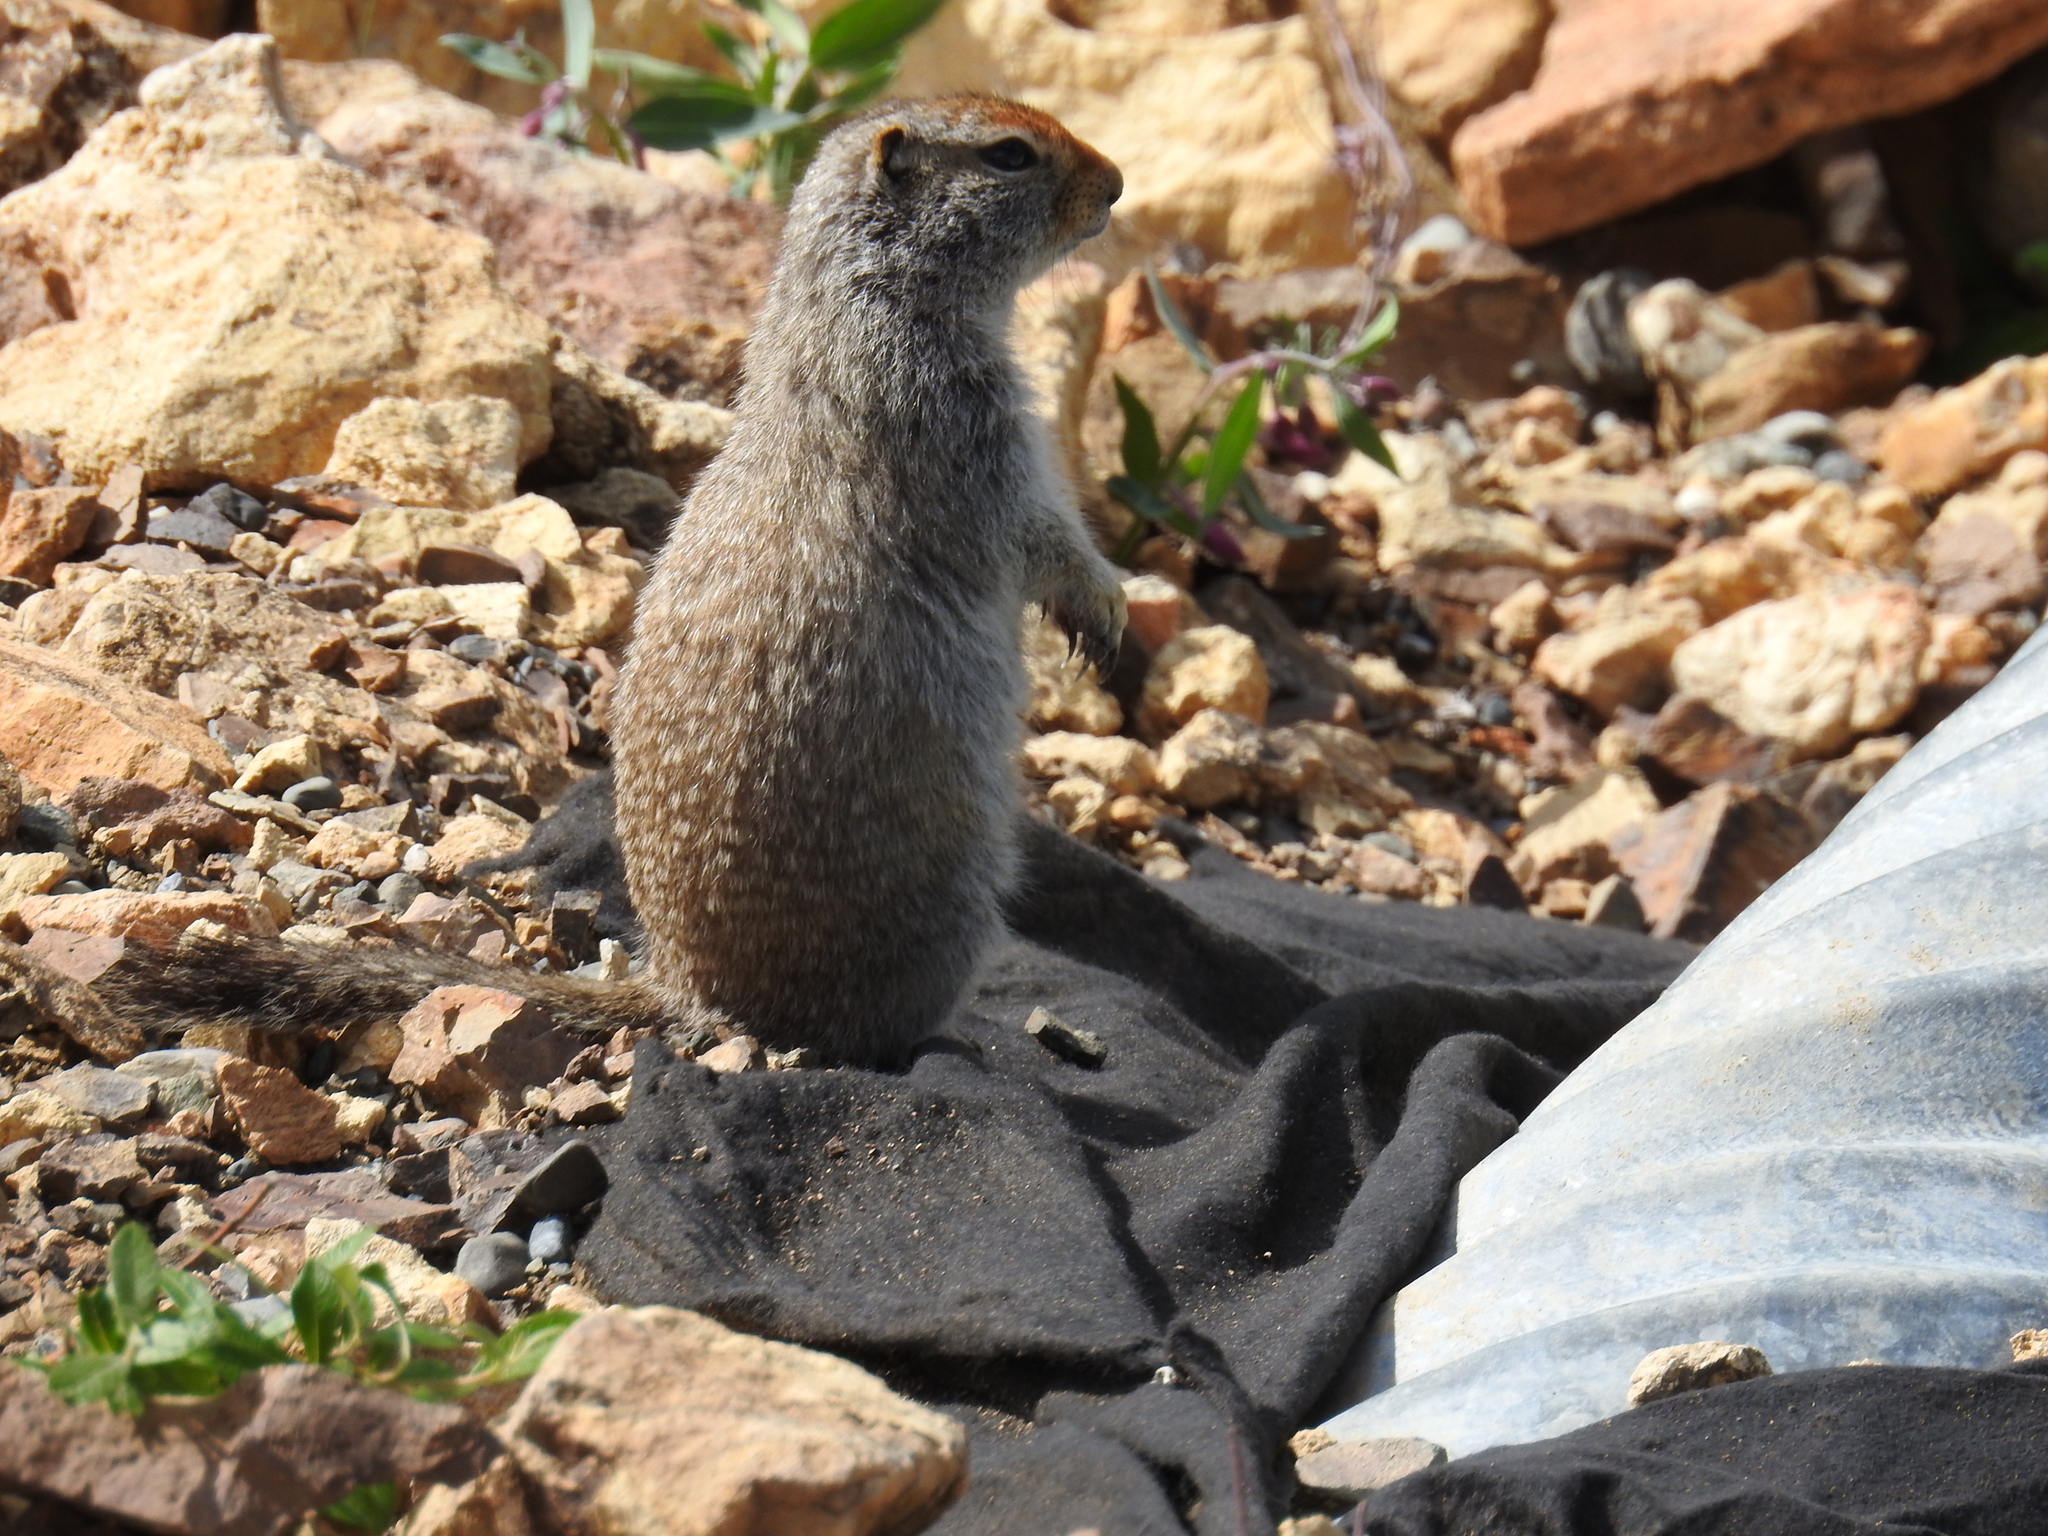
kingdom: Animalia
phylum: Chordata
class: Mammalia
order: Rodentia
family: Sciuridae
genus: Urocitellus
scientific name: Urocitellus parryii
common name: Arctic ground squirrel
